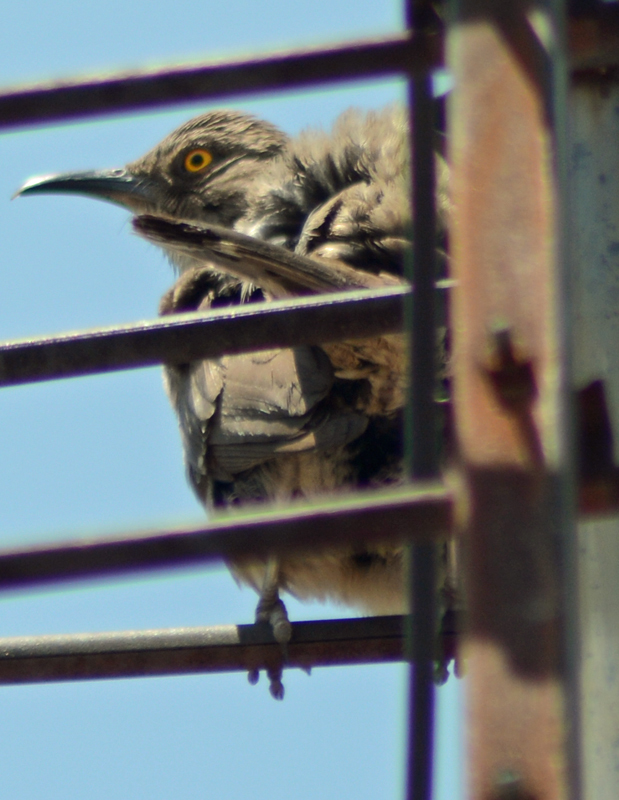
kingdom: Animalia
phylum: Chordata
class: Aves
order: Passeriformes
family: Mimidae
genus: Toxostoma
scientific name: Toxostoma curvirostre
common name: Curve-billed thrasher
